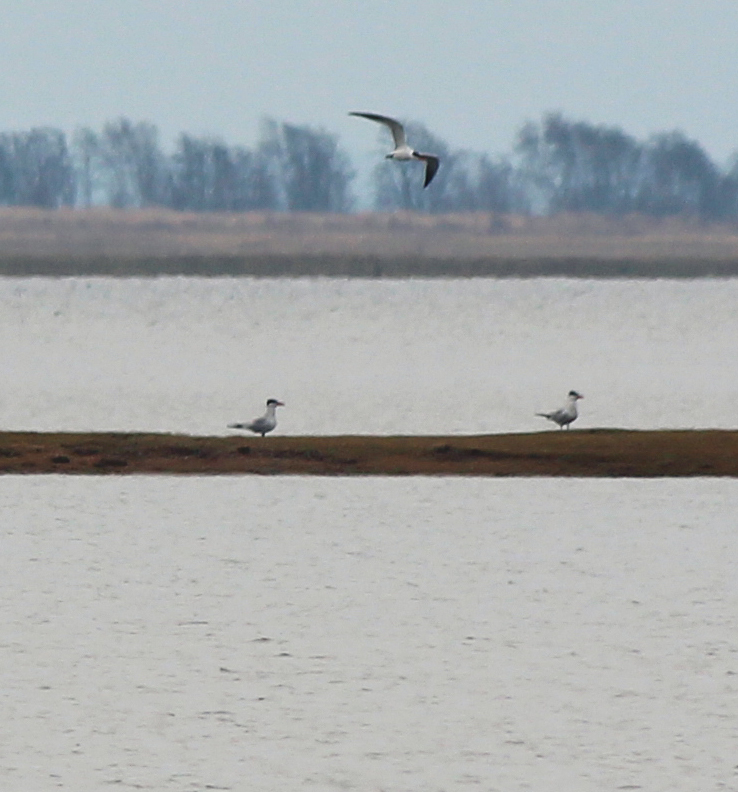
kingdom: Animalia
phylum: Chordata
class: Aves
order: Charadriiformes
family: Laridae
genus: Hydroprogne
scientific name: Hydroprogne caspia
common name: Caspian tern
